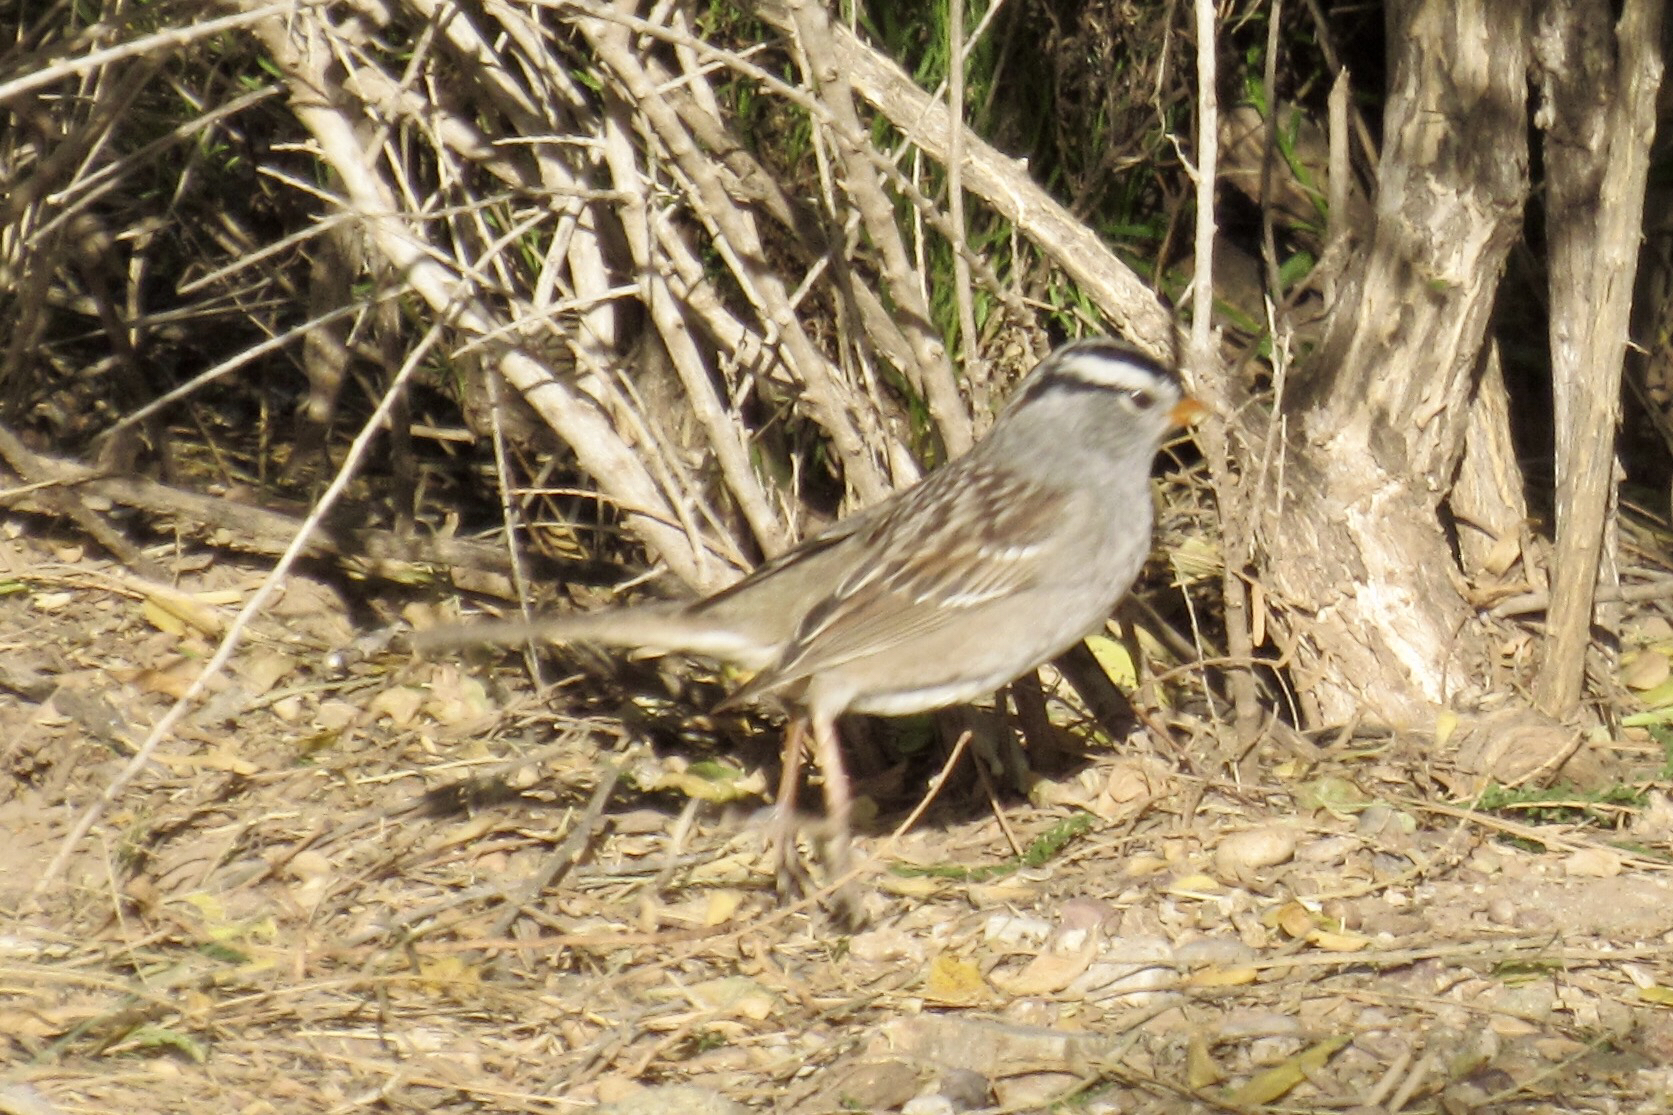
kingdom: Animalia
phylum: Chordata
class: Aves
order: Passeriformes
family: Passerellidae
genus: Zonotrichia
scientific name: Zonotrichia leucophrys
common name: White-crowned sparrow
